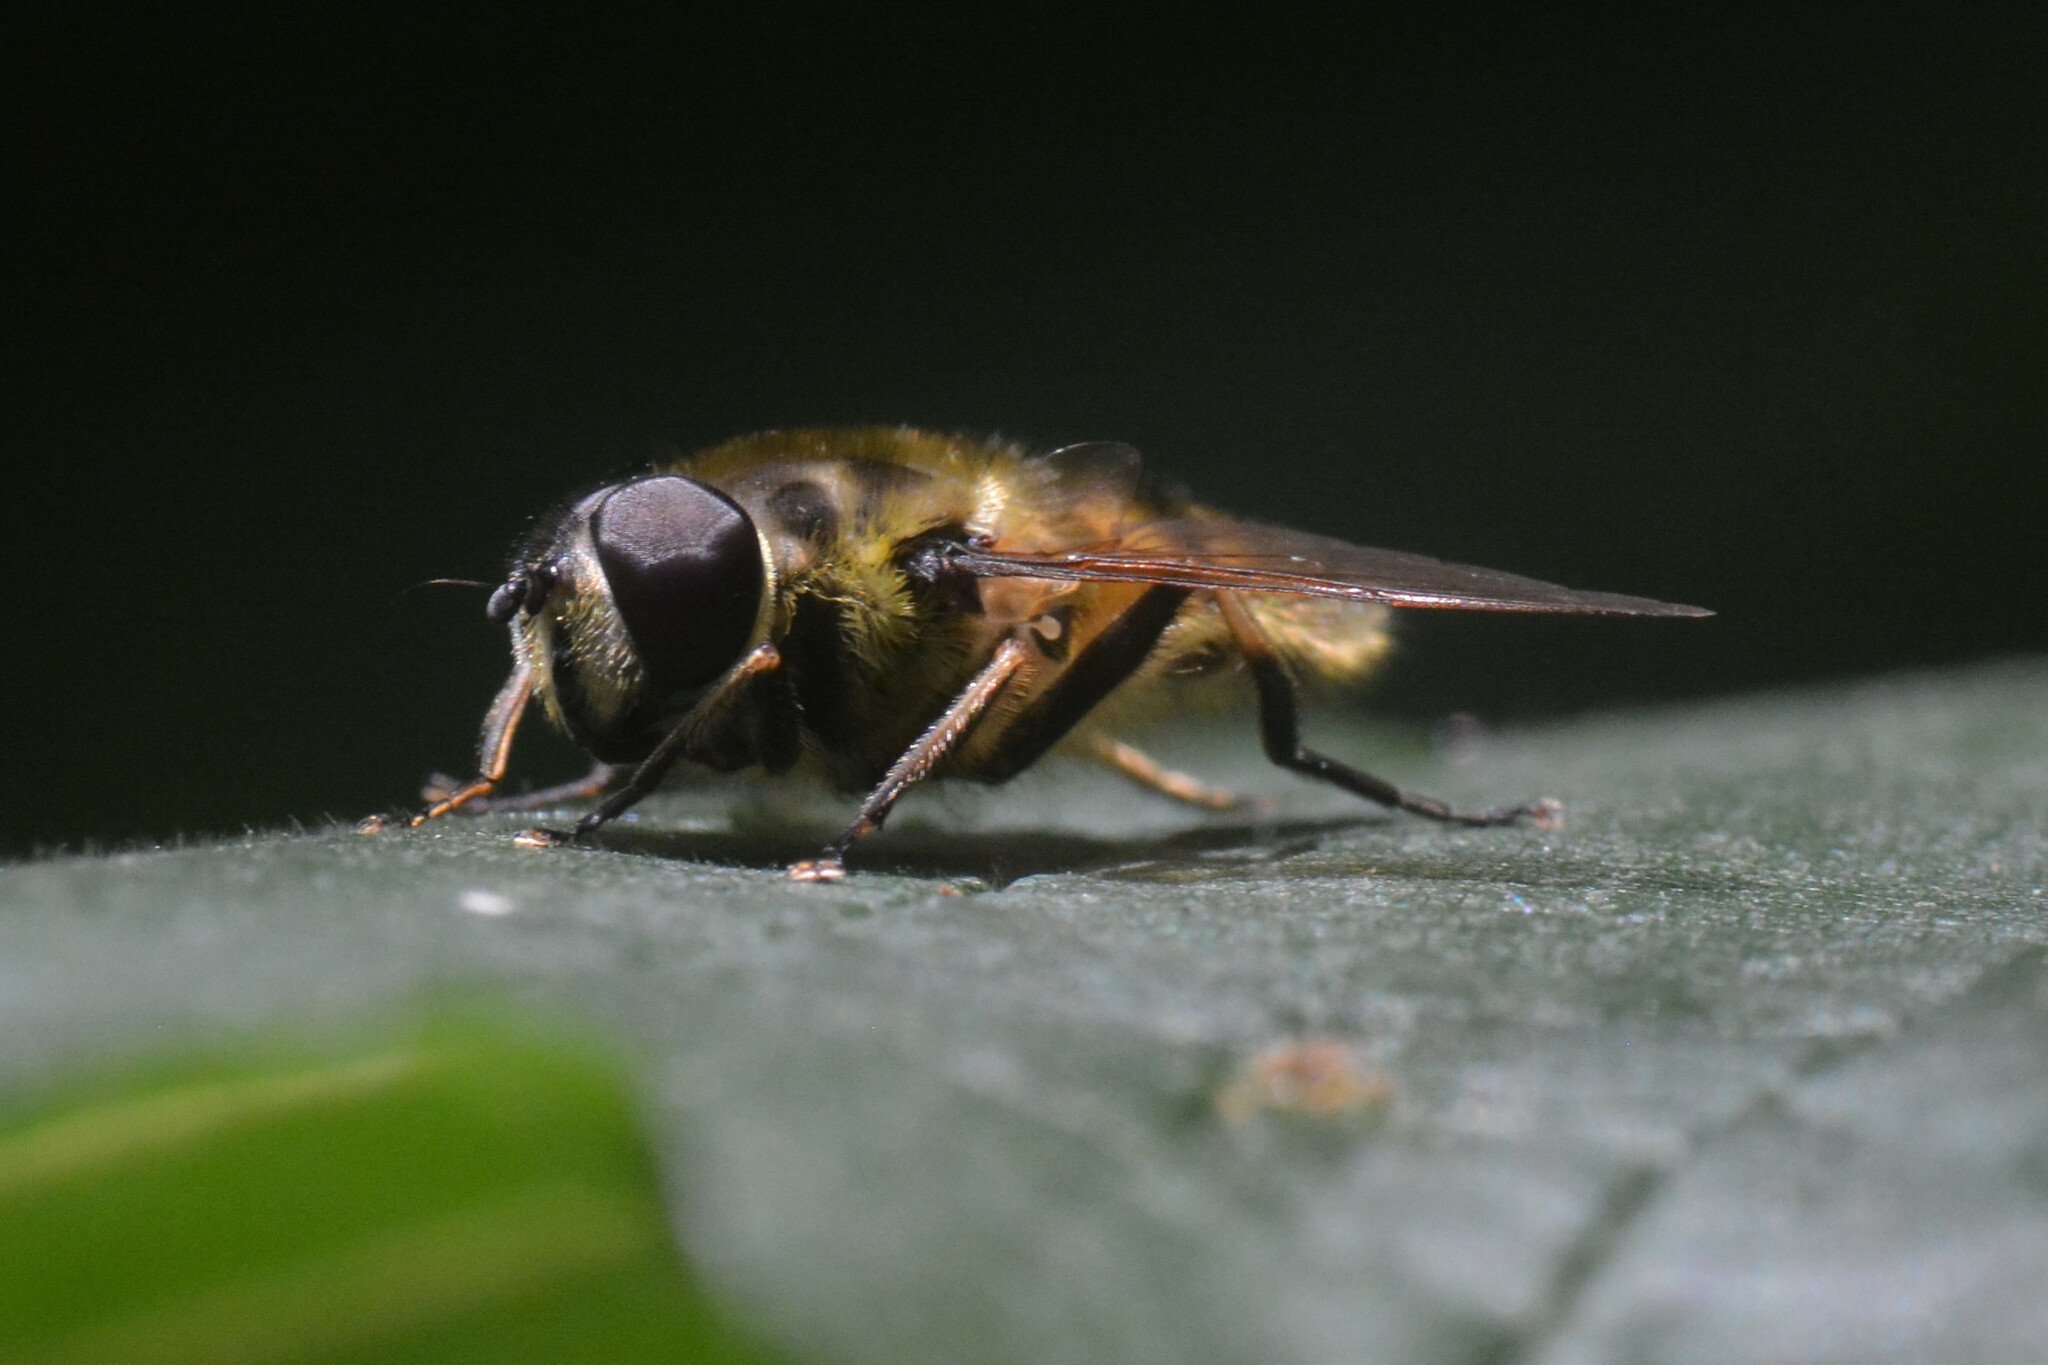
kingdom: Animalia
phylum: Arthropoda
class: Insecta
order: Diptera
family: Syrphidae
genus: Myathropa
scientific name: Myathropa florea
